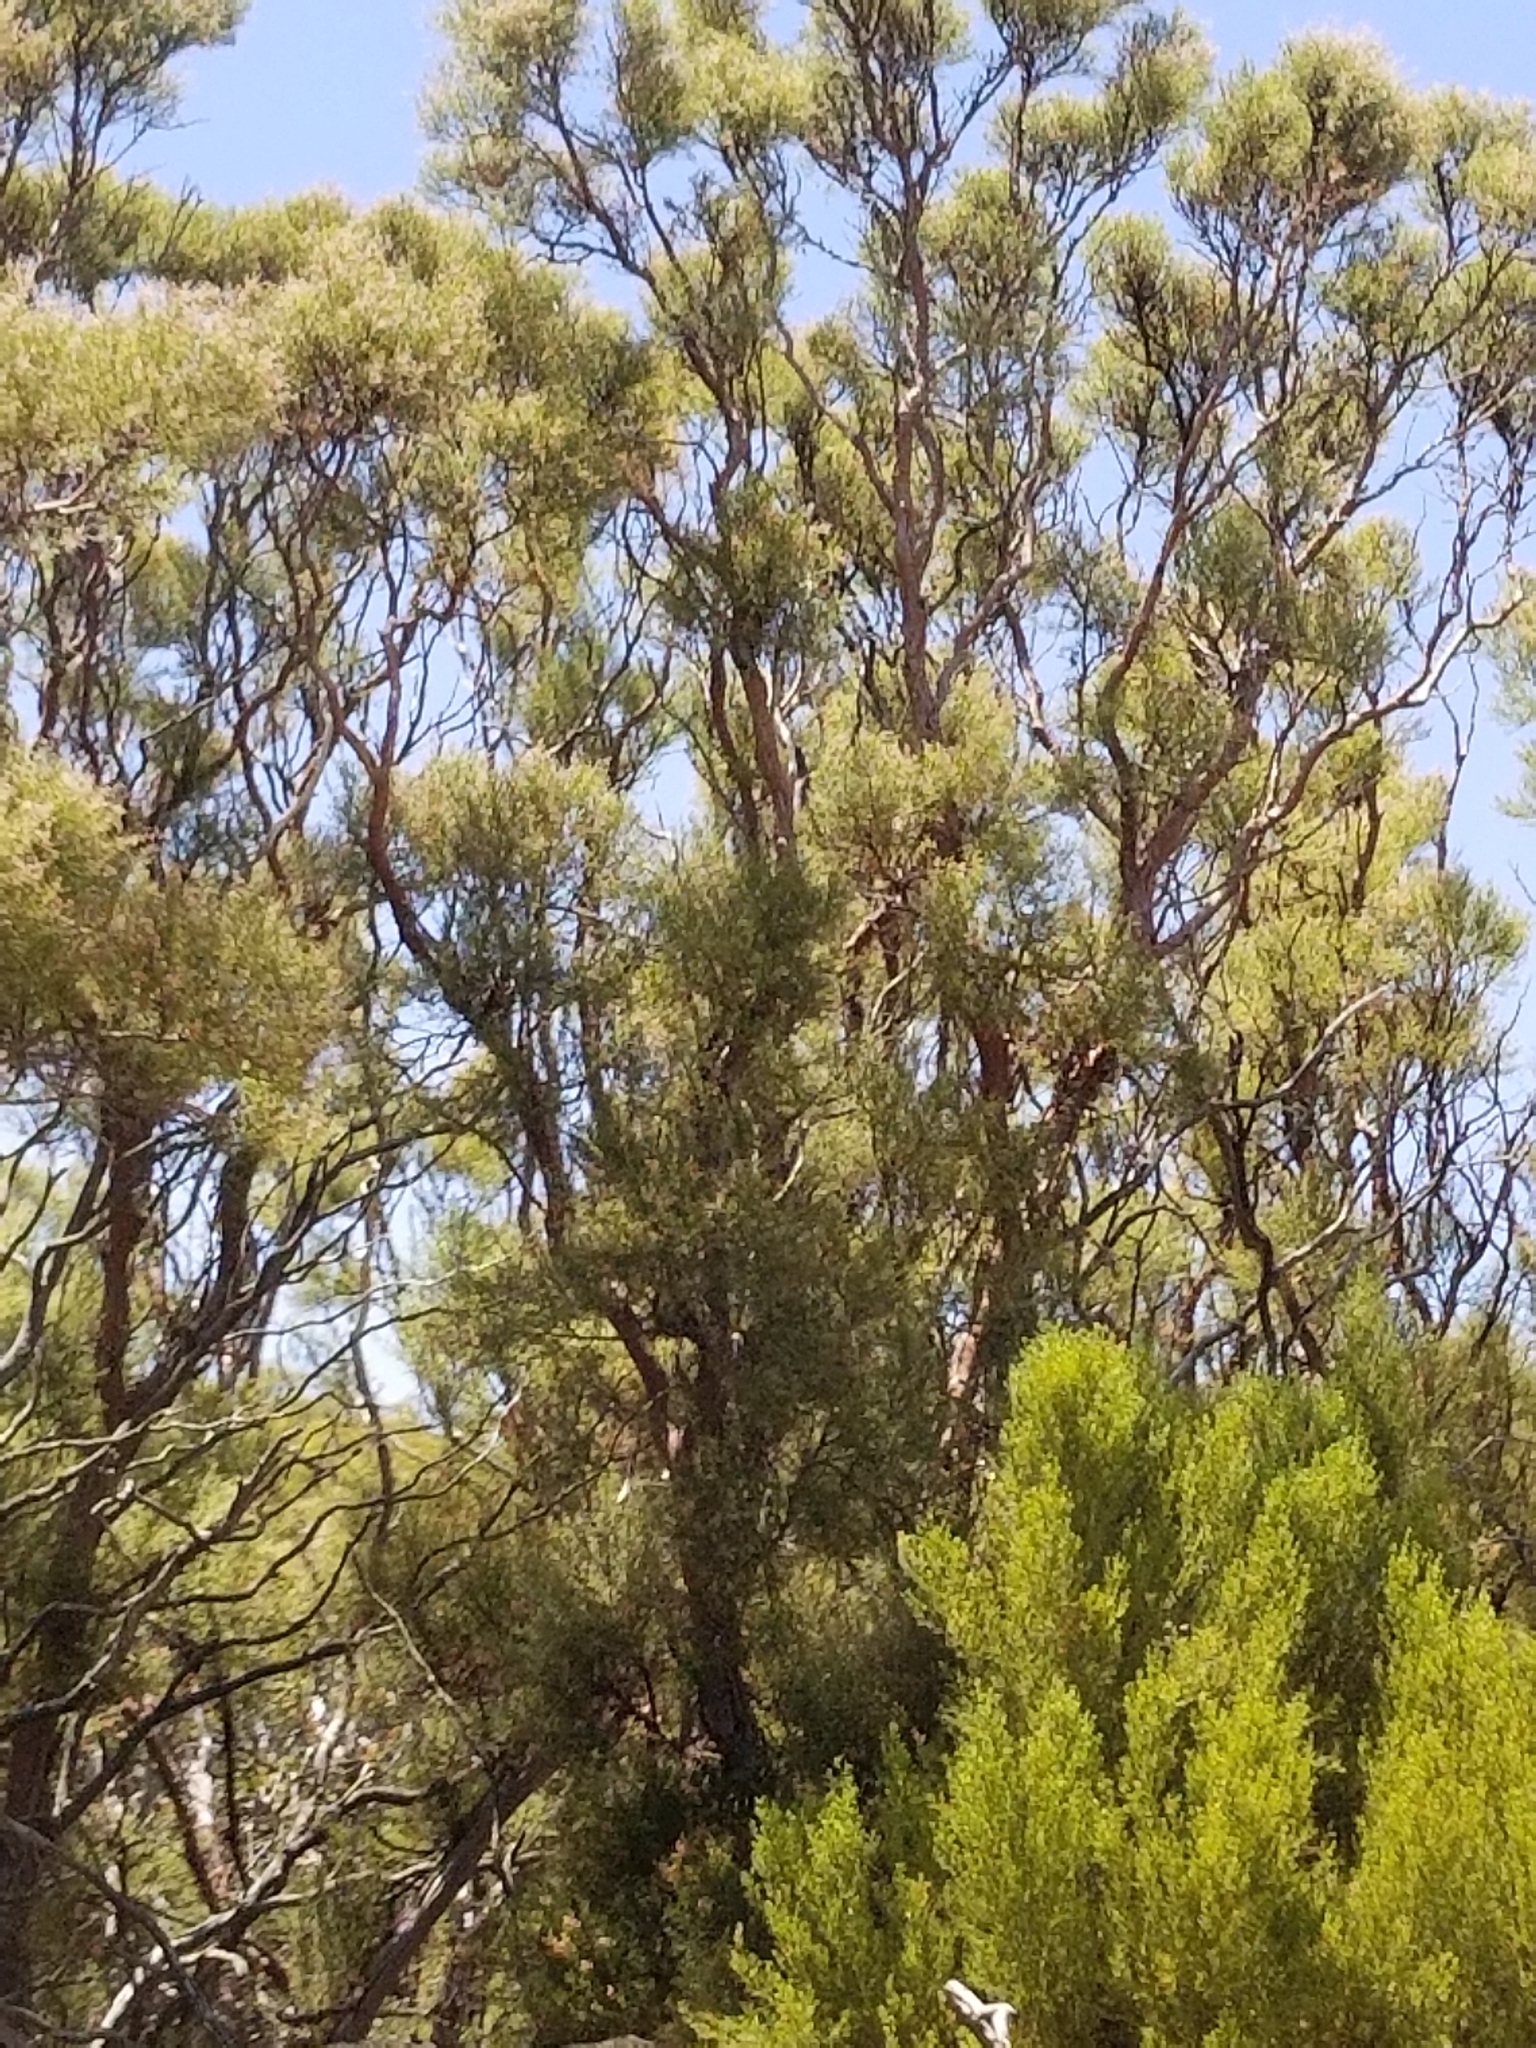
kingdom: Plantae
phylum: Tracheophyta
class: Magnoliopsida
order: Rosales
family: Rosaceae
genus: Adenostoma
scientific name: Adenostoma sparsifolium
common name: Red shank
